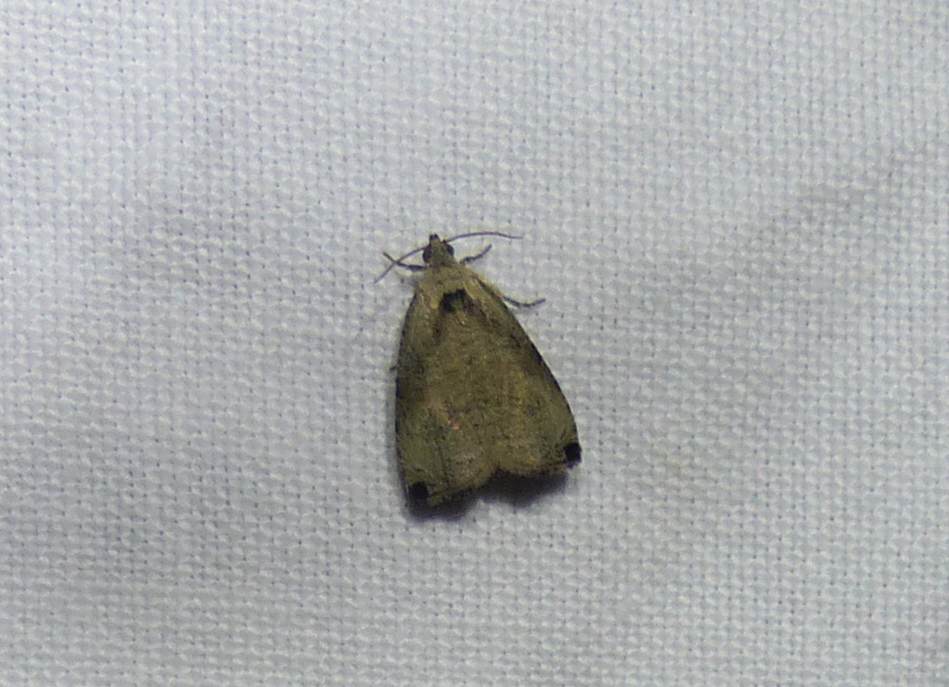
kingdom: Animalia
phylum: Arthropoda
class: Insecta
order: Lepidoptera
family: Tortricidae
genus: Olethreutes
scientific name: Olethreutes exoletum
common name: Wretched olethreutes moth
